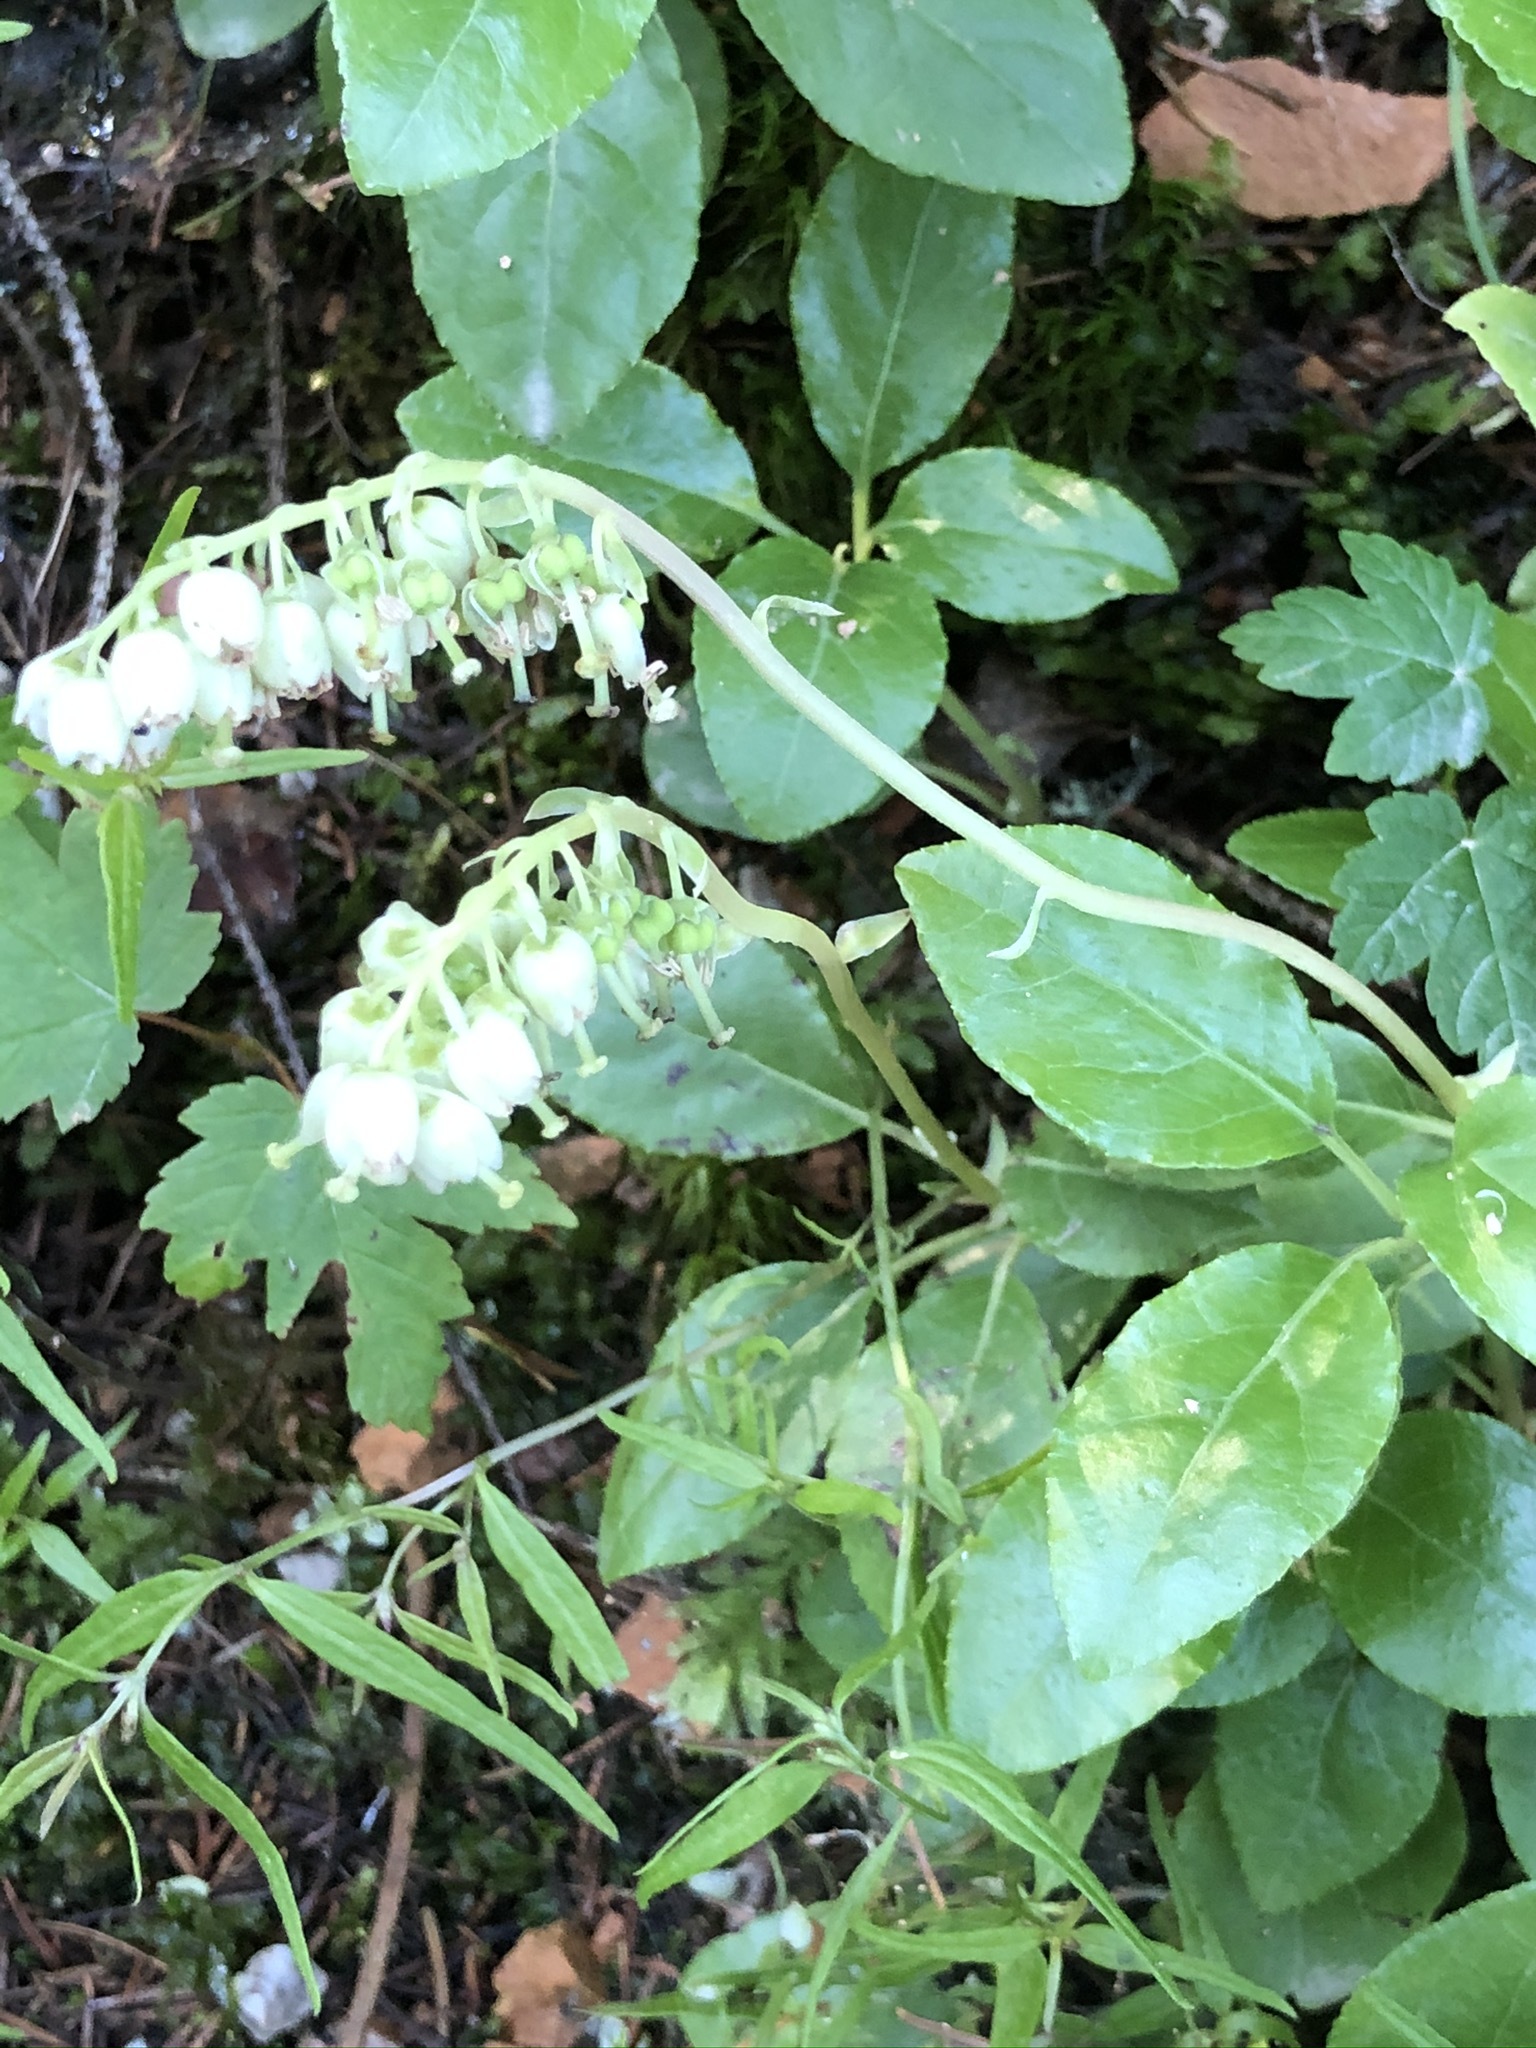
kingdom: Plantae
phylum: Tracheophyta
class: Magnoliopsida
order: Ericales
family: Ericaceae
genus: Orthilia
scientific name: Orthilia secunda
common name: One-sided orthilia
